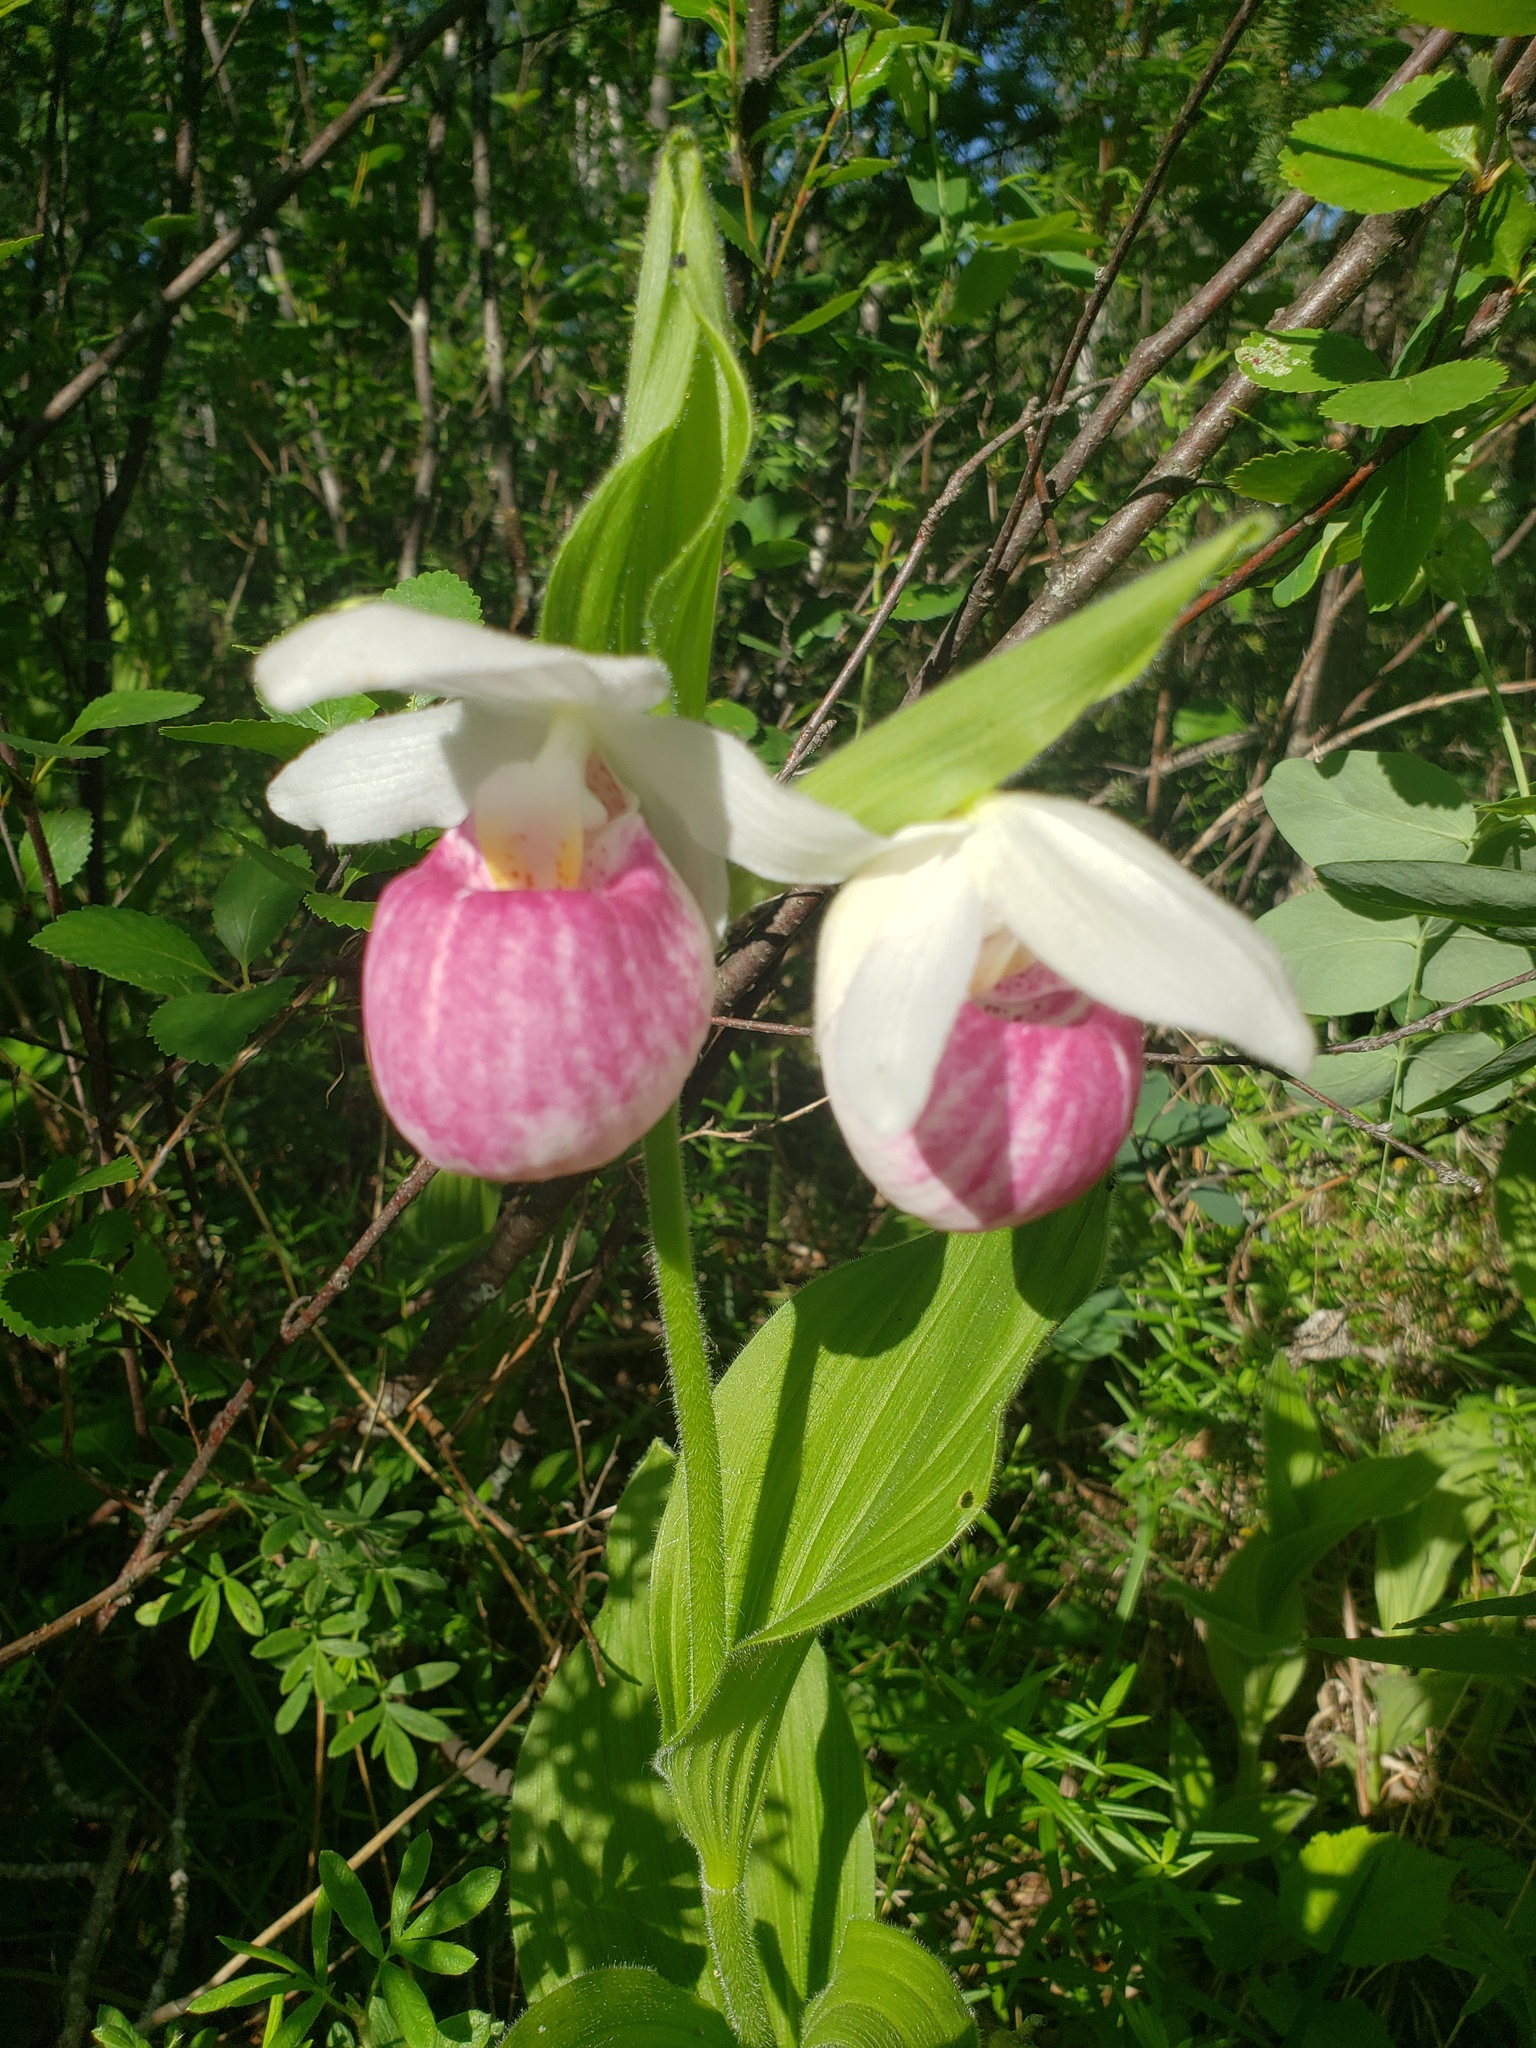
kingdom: Plantae
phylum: Tracheophyta
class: Liliopsida
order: Asparagales
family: Orchidaceae
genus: Cypripedium
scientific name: Cypripedium reginae
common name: Queen lady's-slipper
